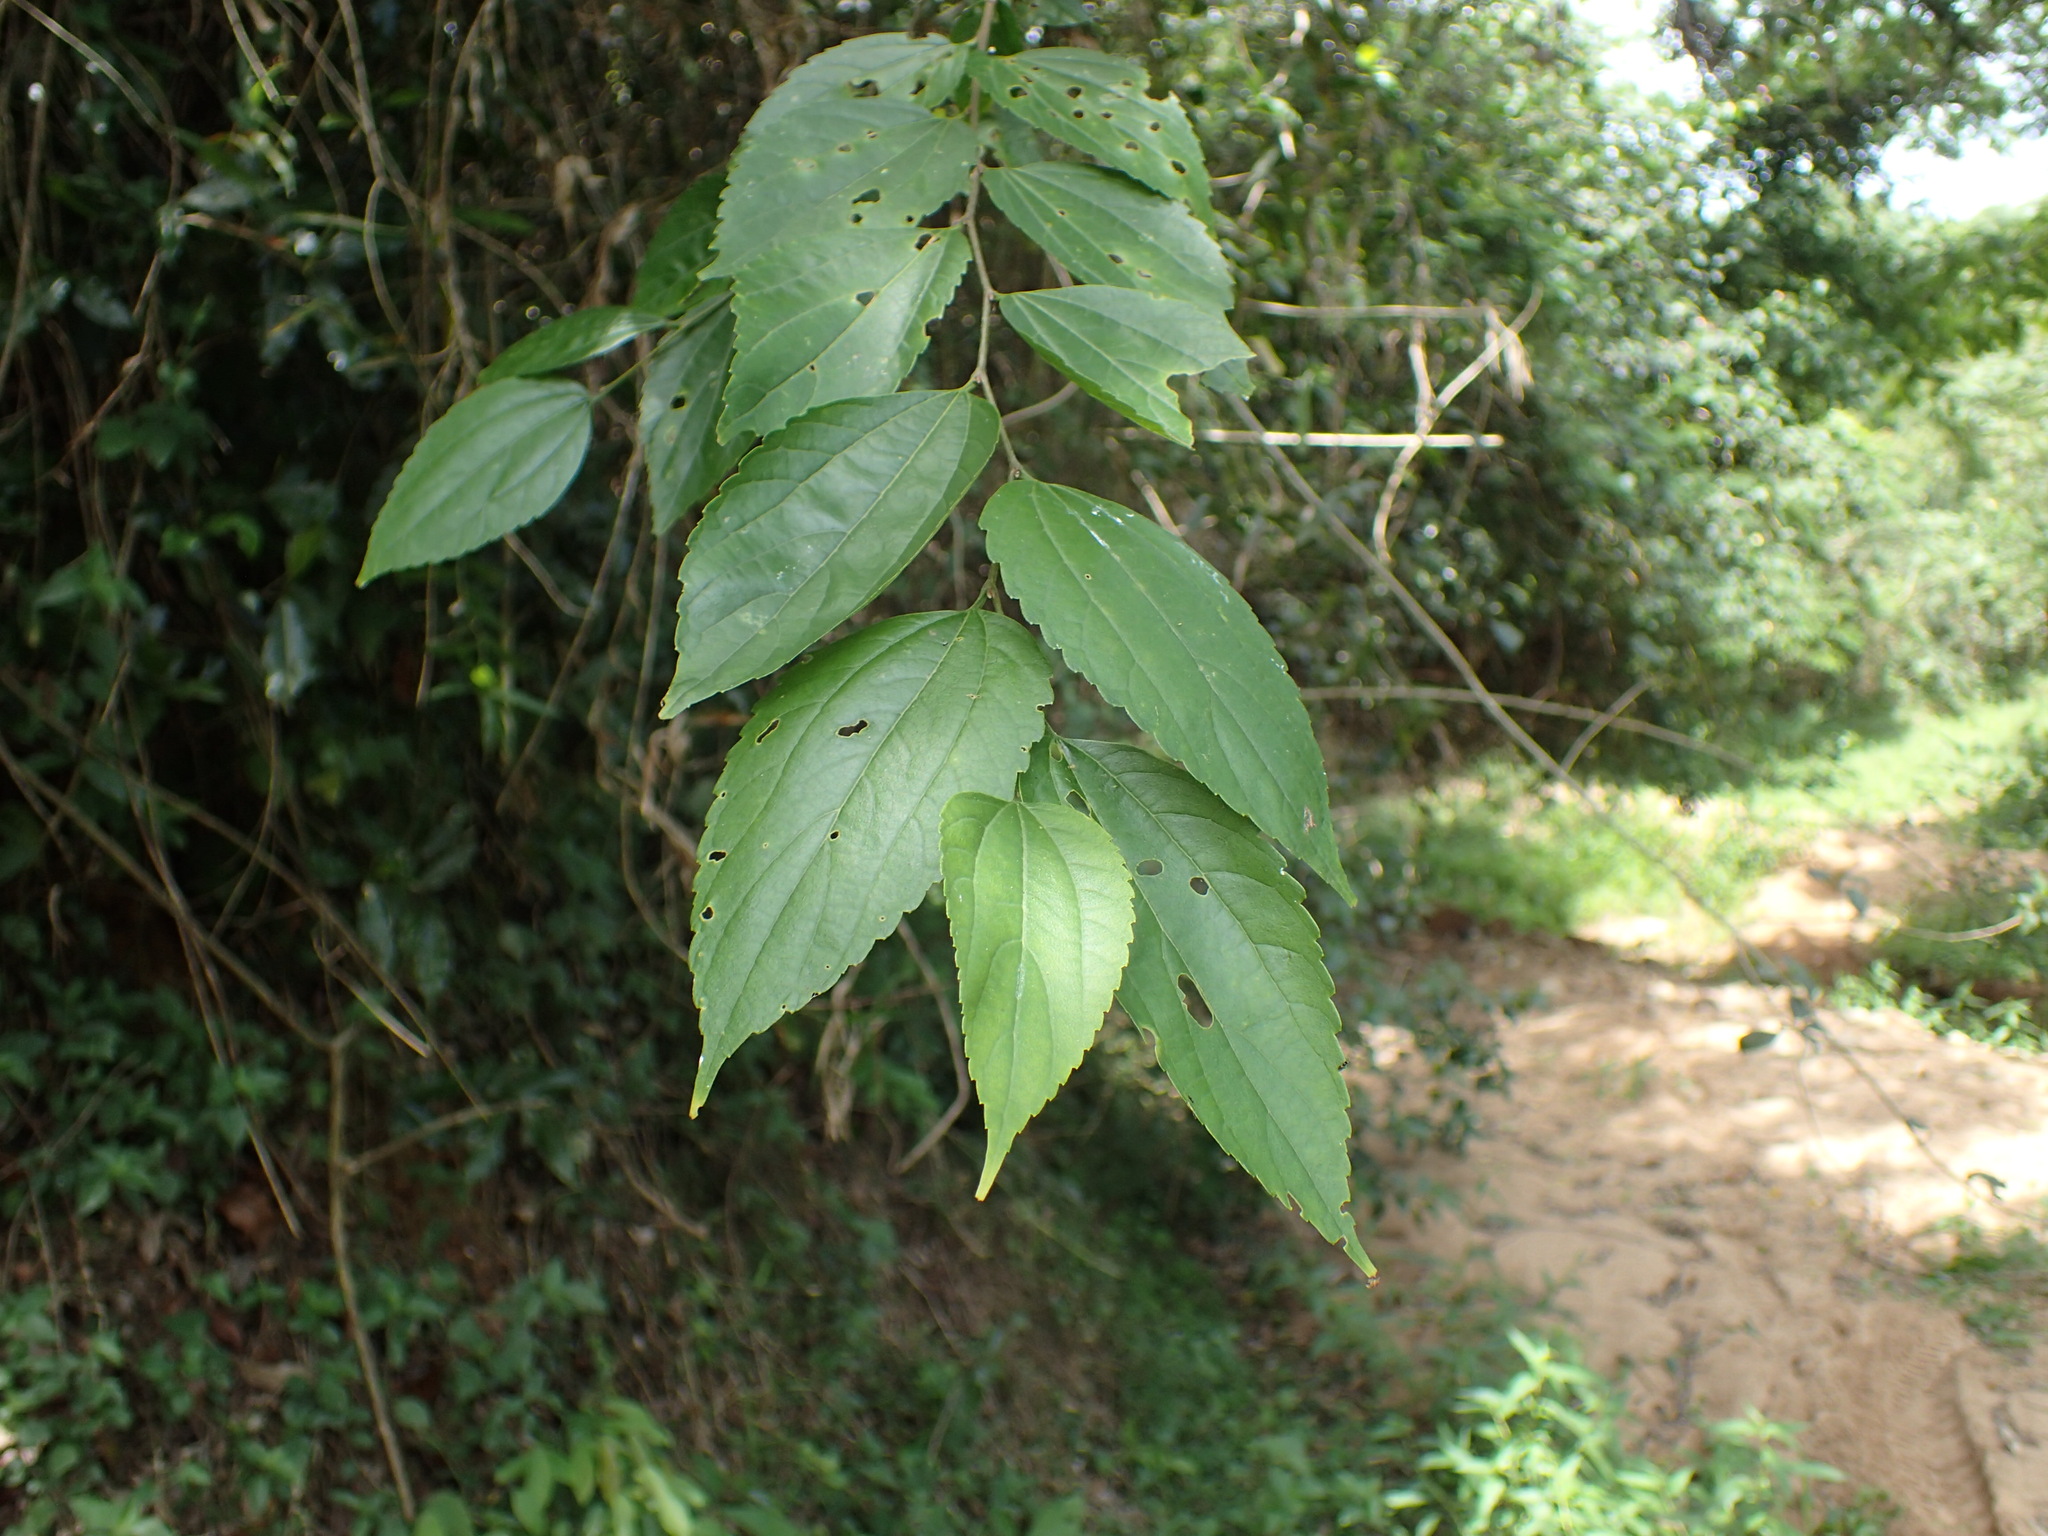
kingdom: Plantae
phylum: Tracheophyta
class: Magnoliopsida
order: Rosales
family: Cannabaceae
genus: Celtis
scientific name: Celtis africana
